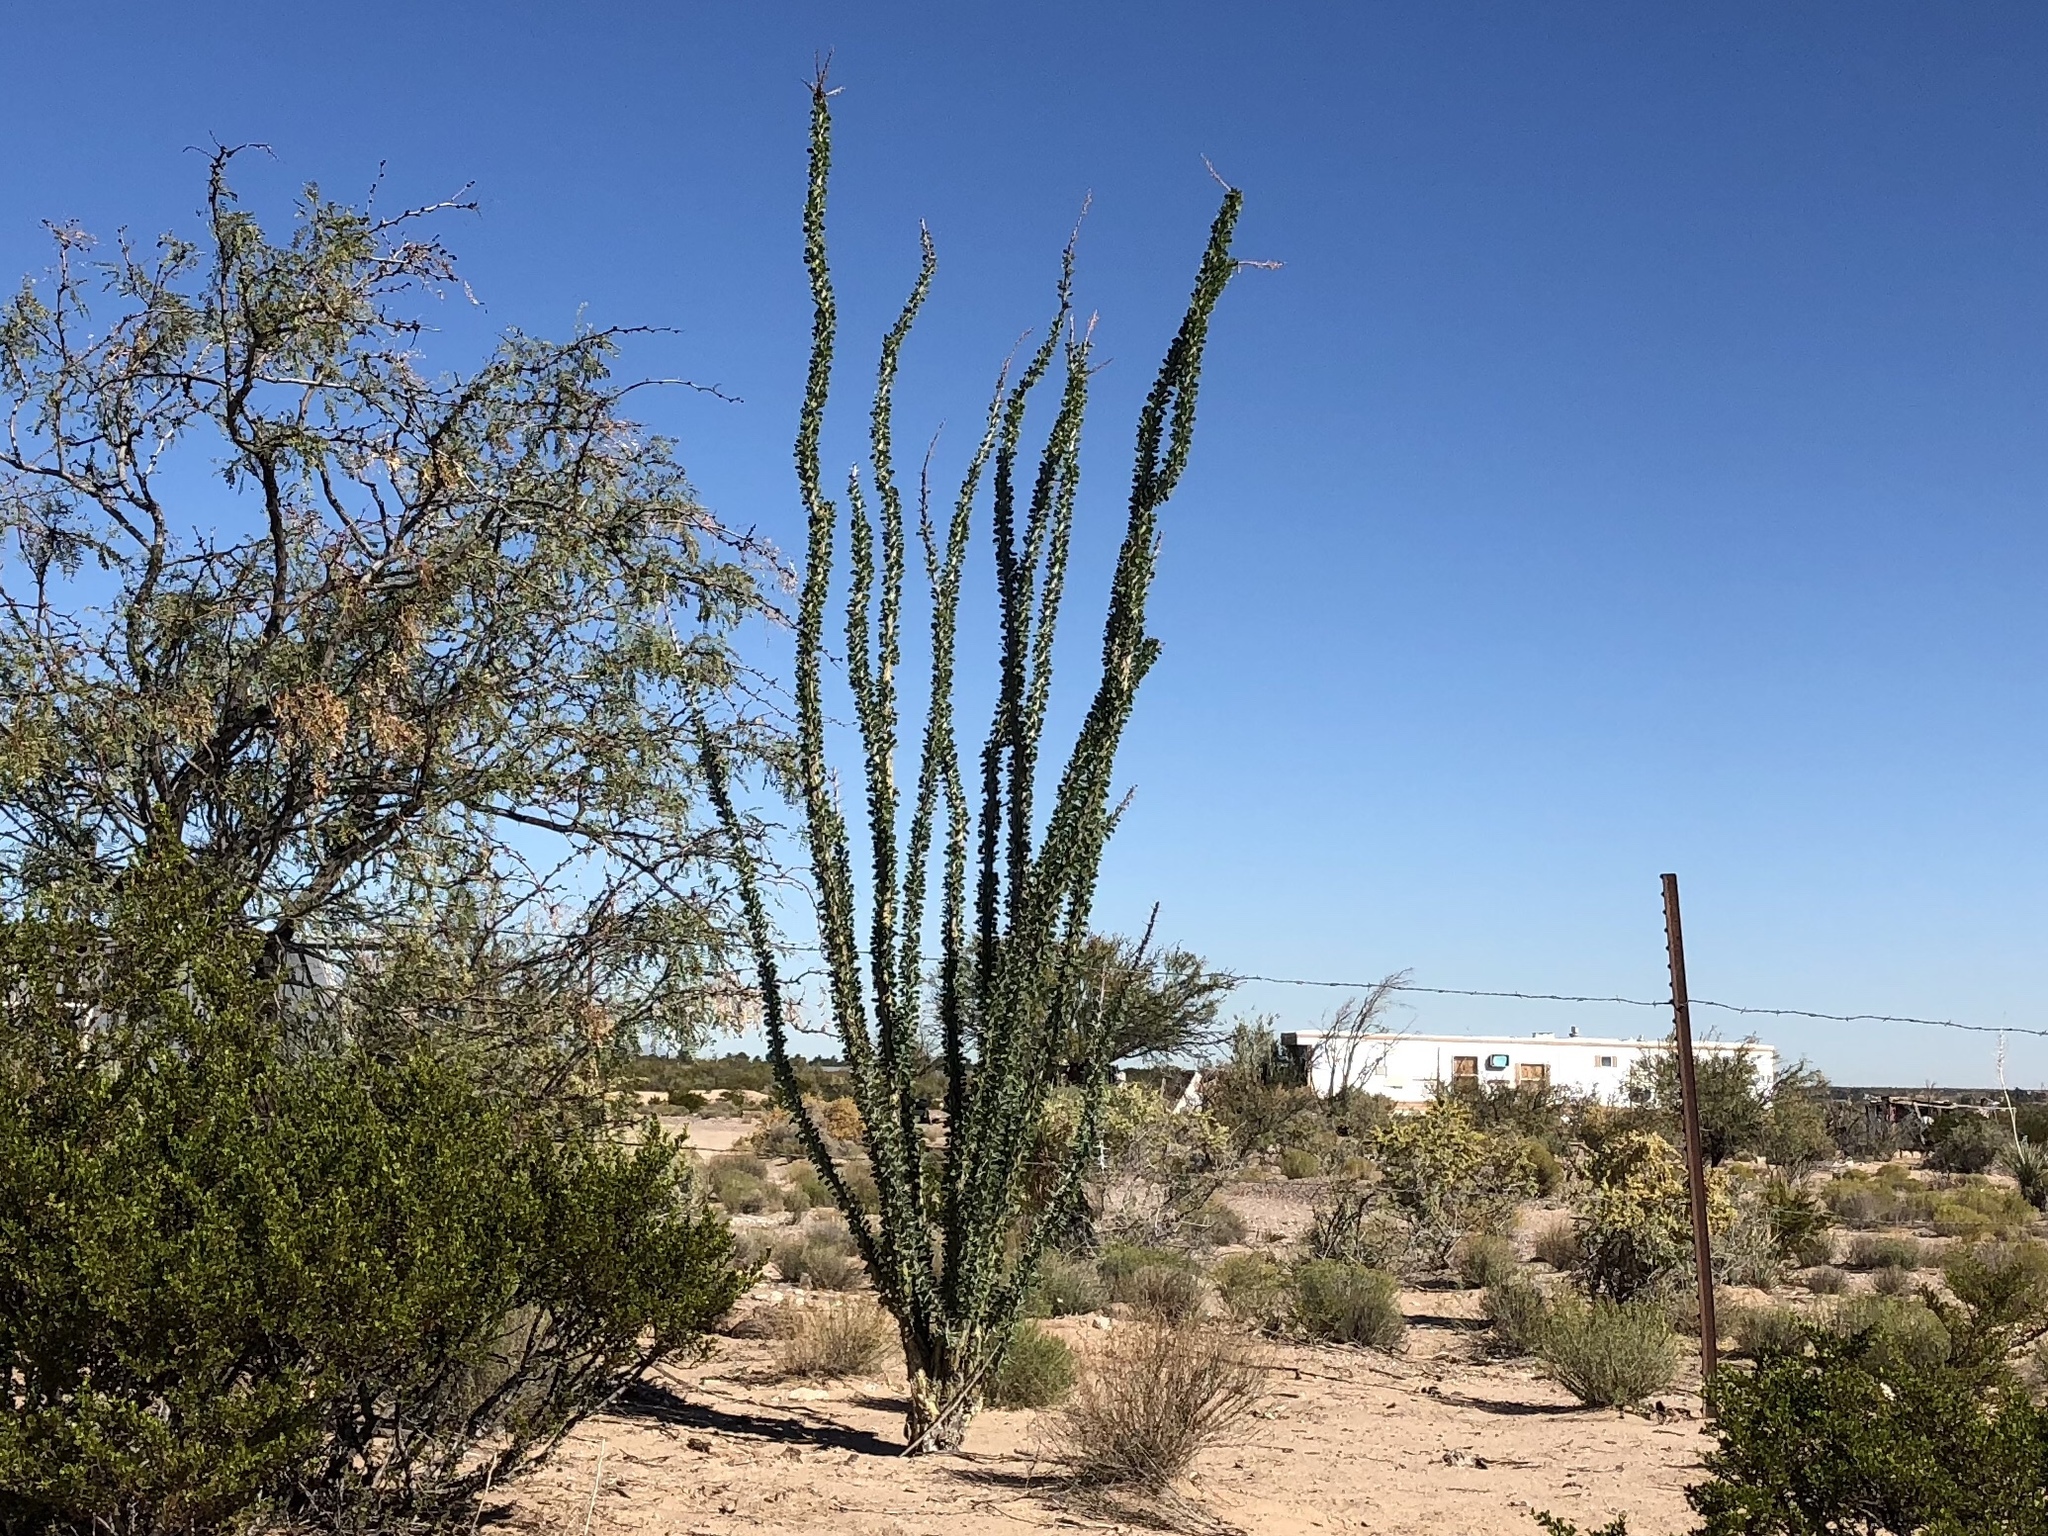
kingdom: Plantae
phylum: Tracheophyta
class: Magnoliopsida
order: Ericales
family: Fouquieriaceae
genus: Fouquieria
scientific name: Fouquieria splendens
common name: Vine-cactus
